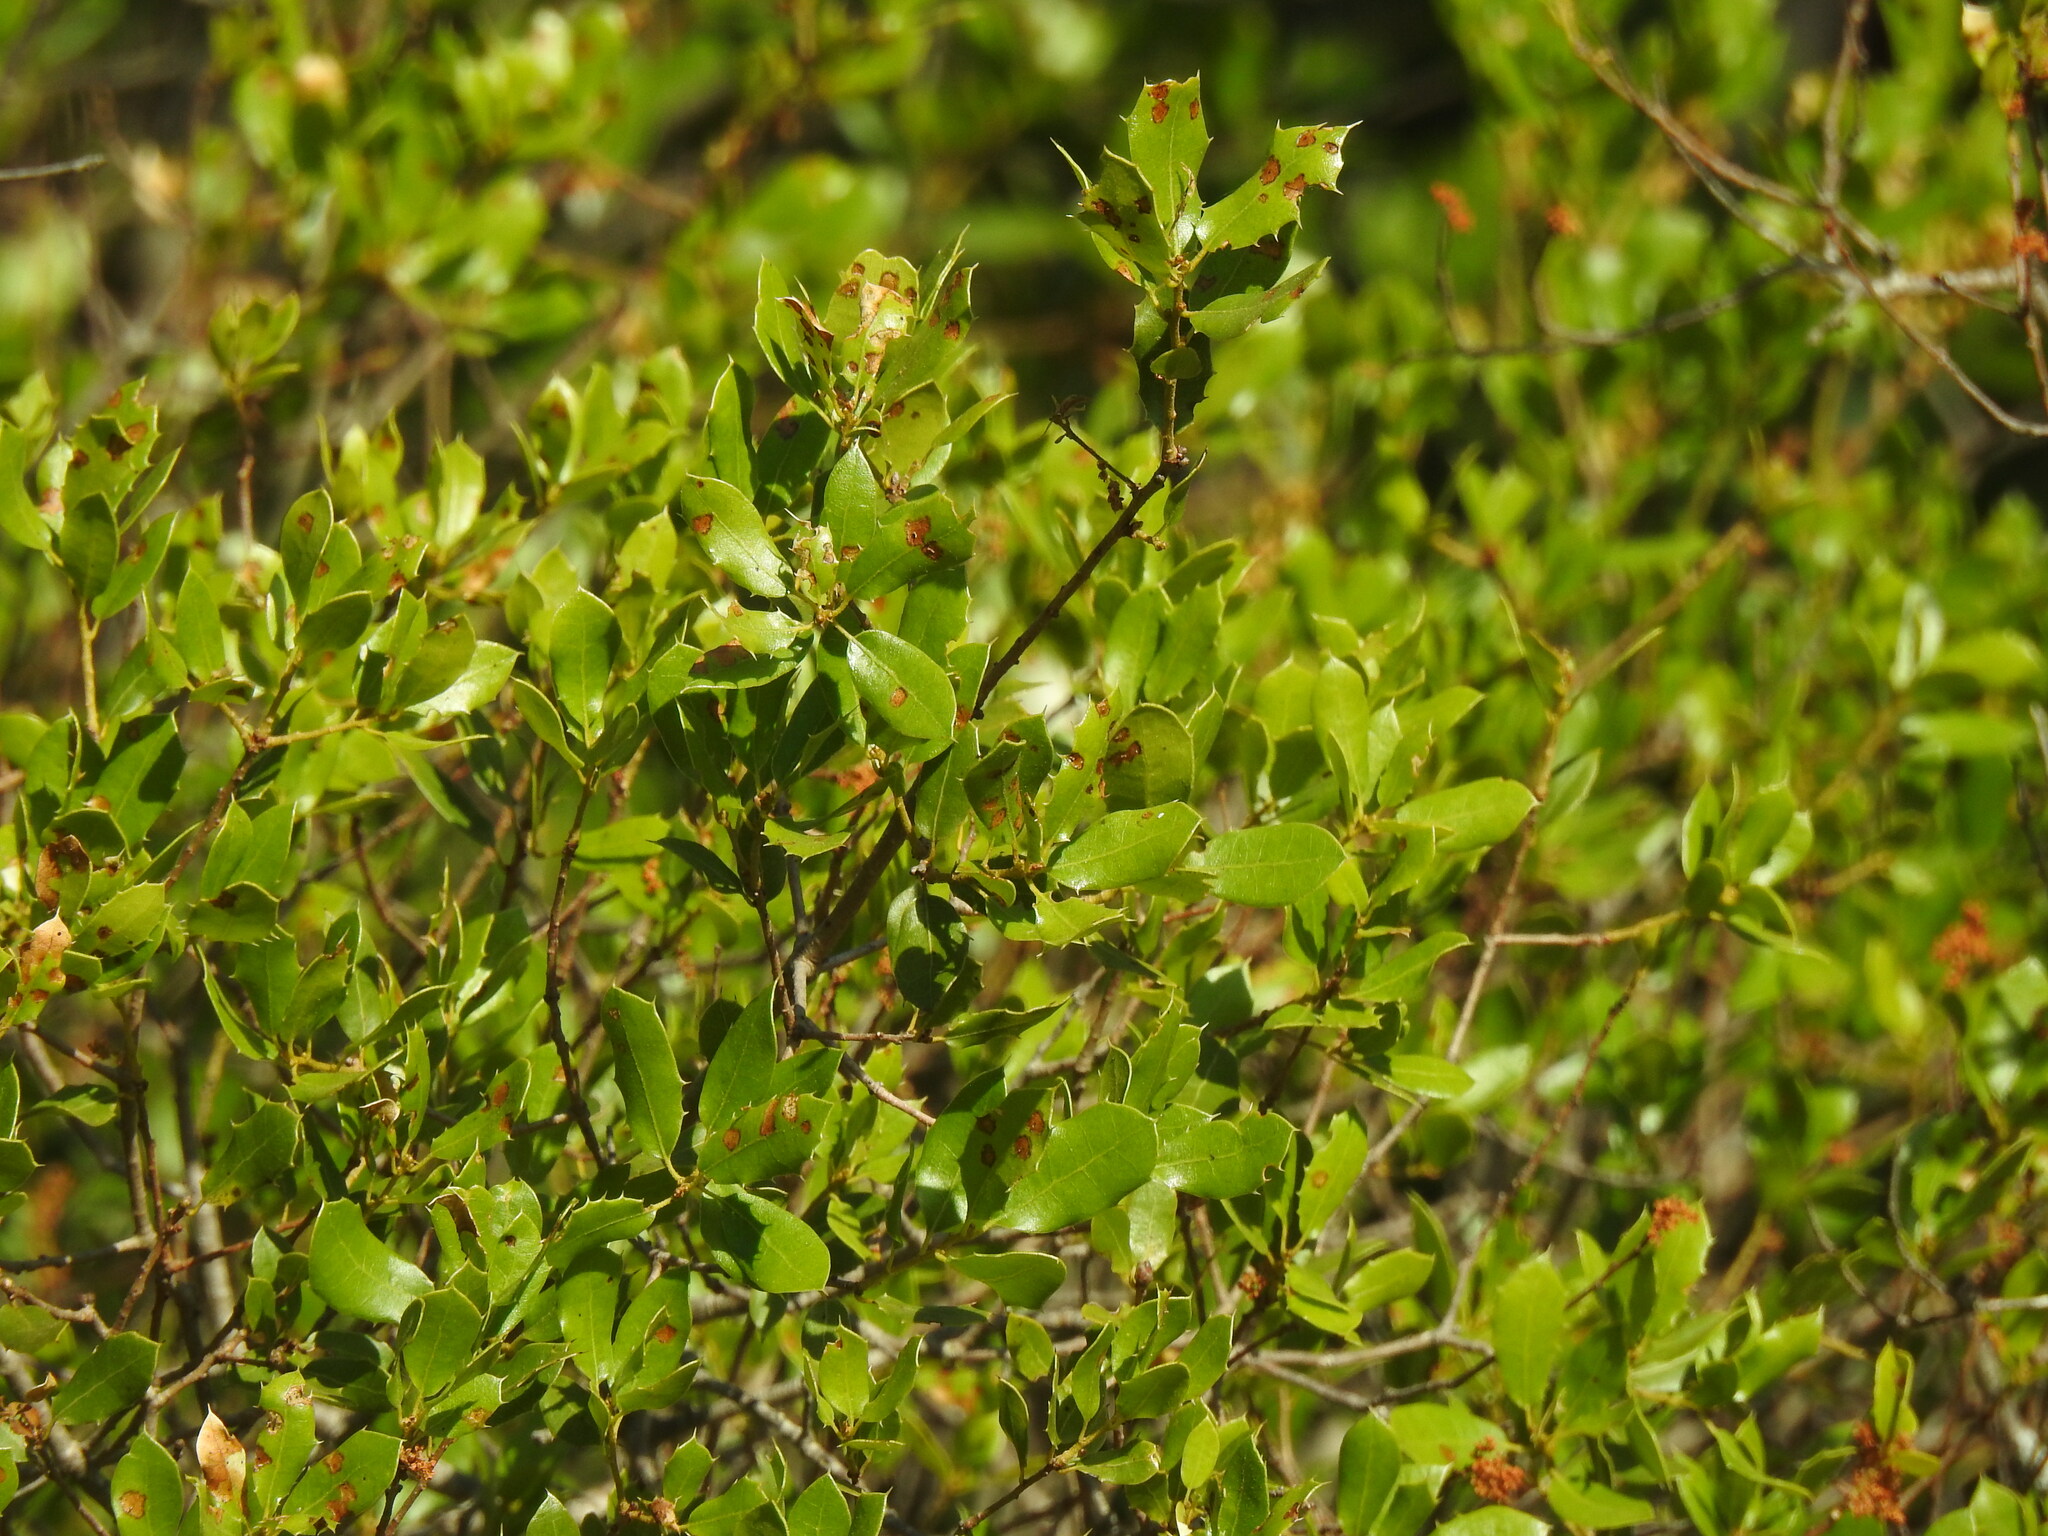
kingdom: Plantae
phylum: Tracheophyta
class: Magnoliopsida
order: Fagales
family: Fagaceae
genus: Quercus
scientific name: Quercus coccifera
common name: Kermes oak
